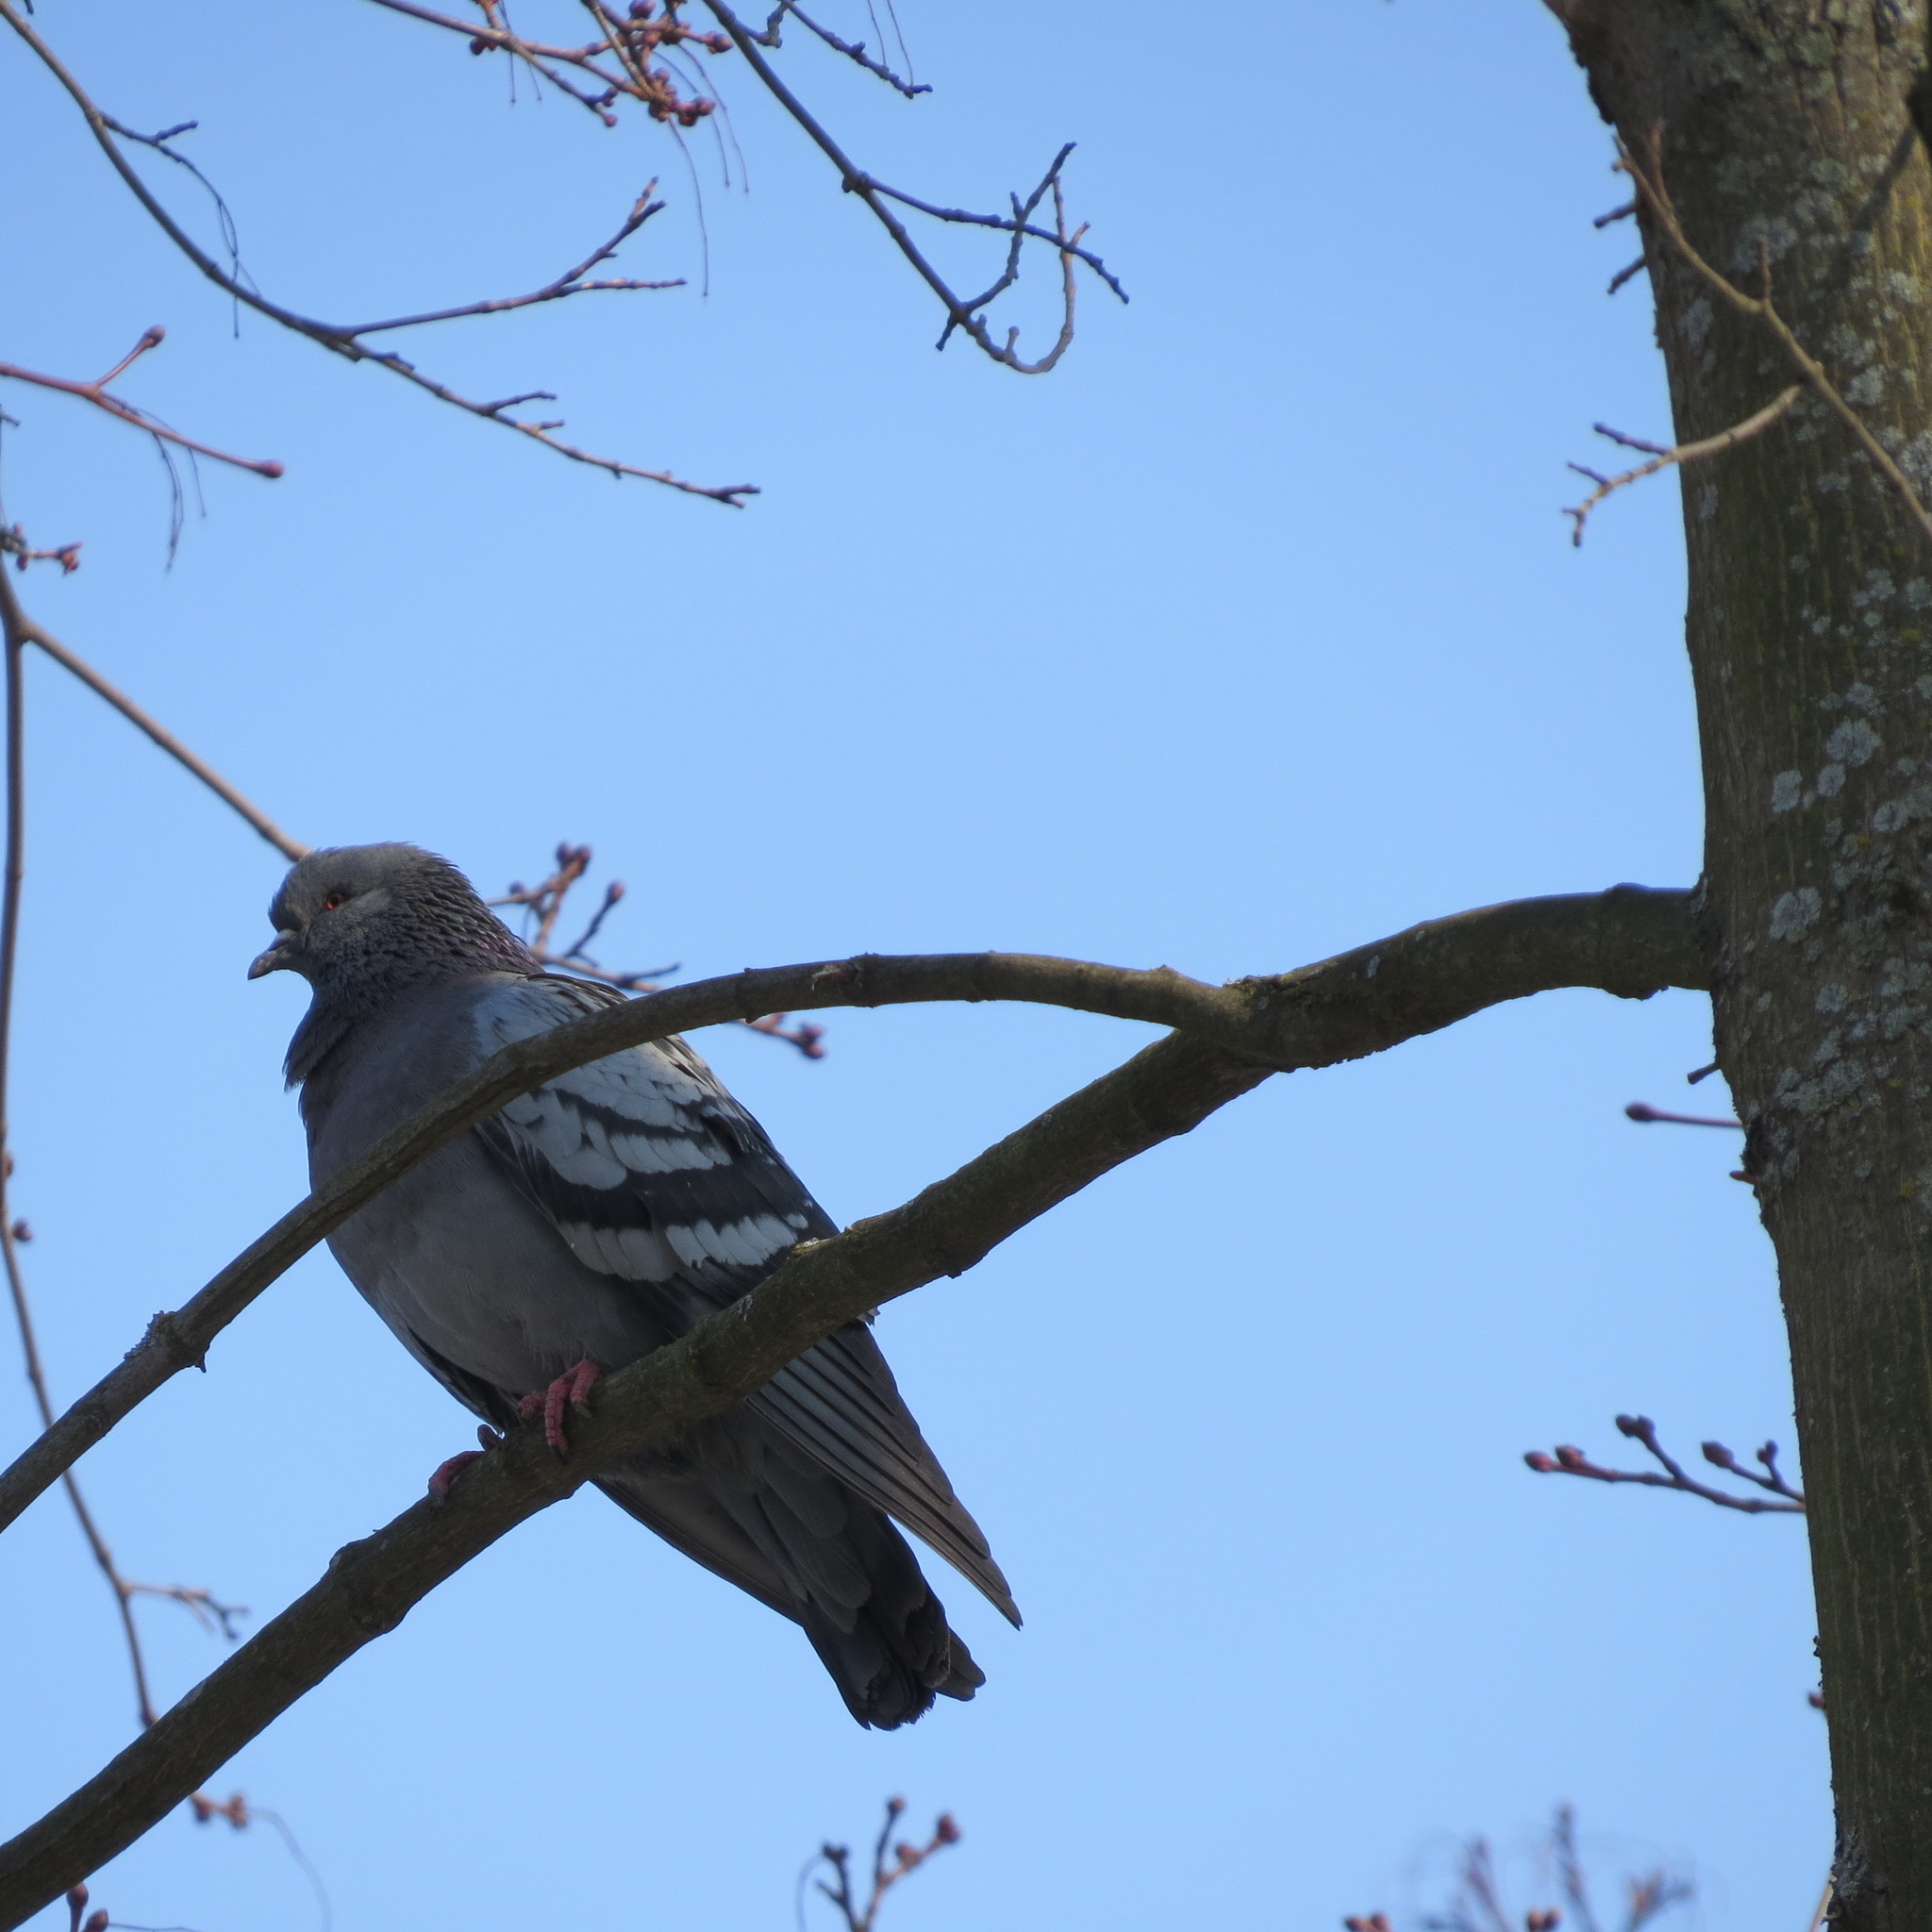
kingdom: Animalia
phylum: Chordata
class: Aves
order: Columbiformes
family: Columbidae
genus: Columba
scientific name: Columba livia
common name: Rock pigeon
